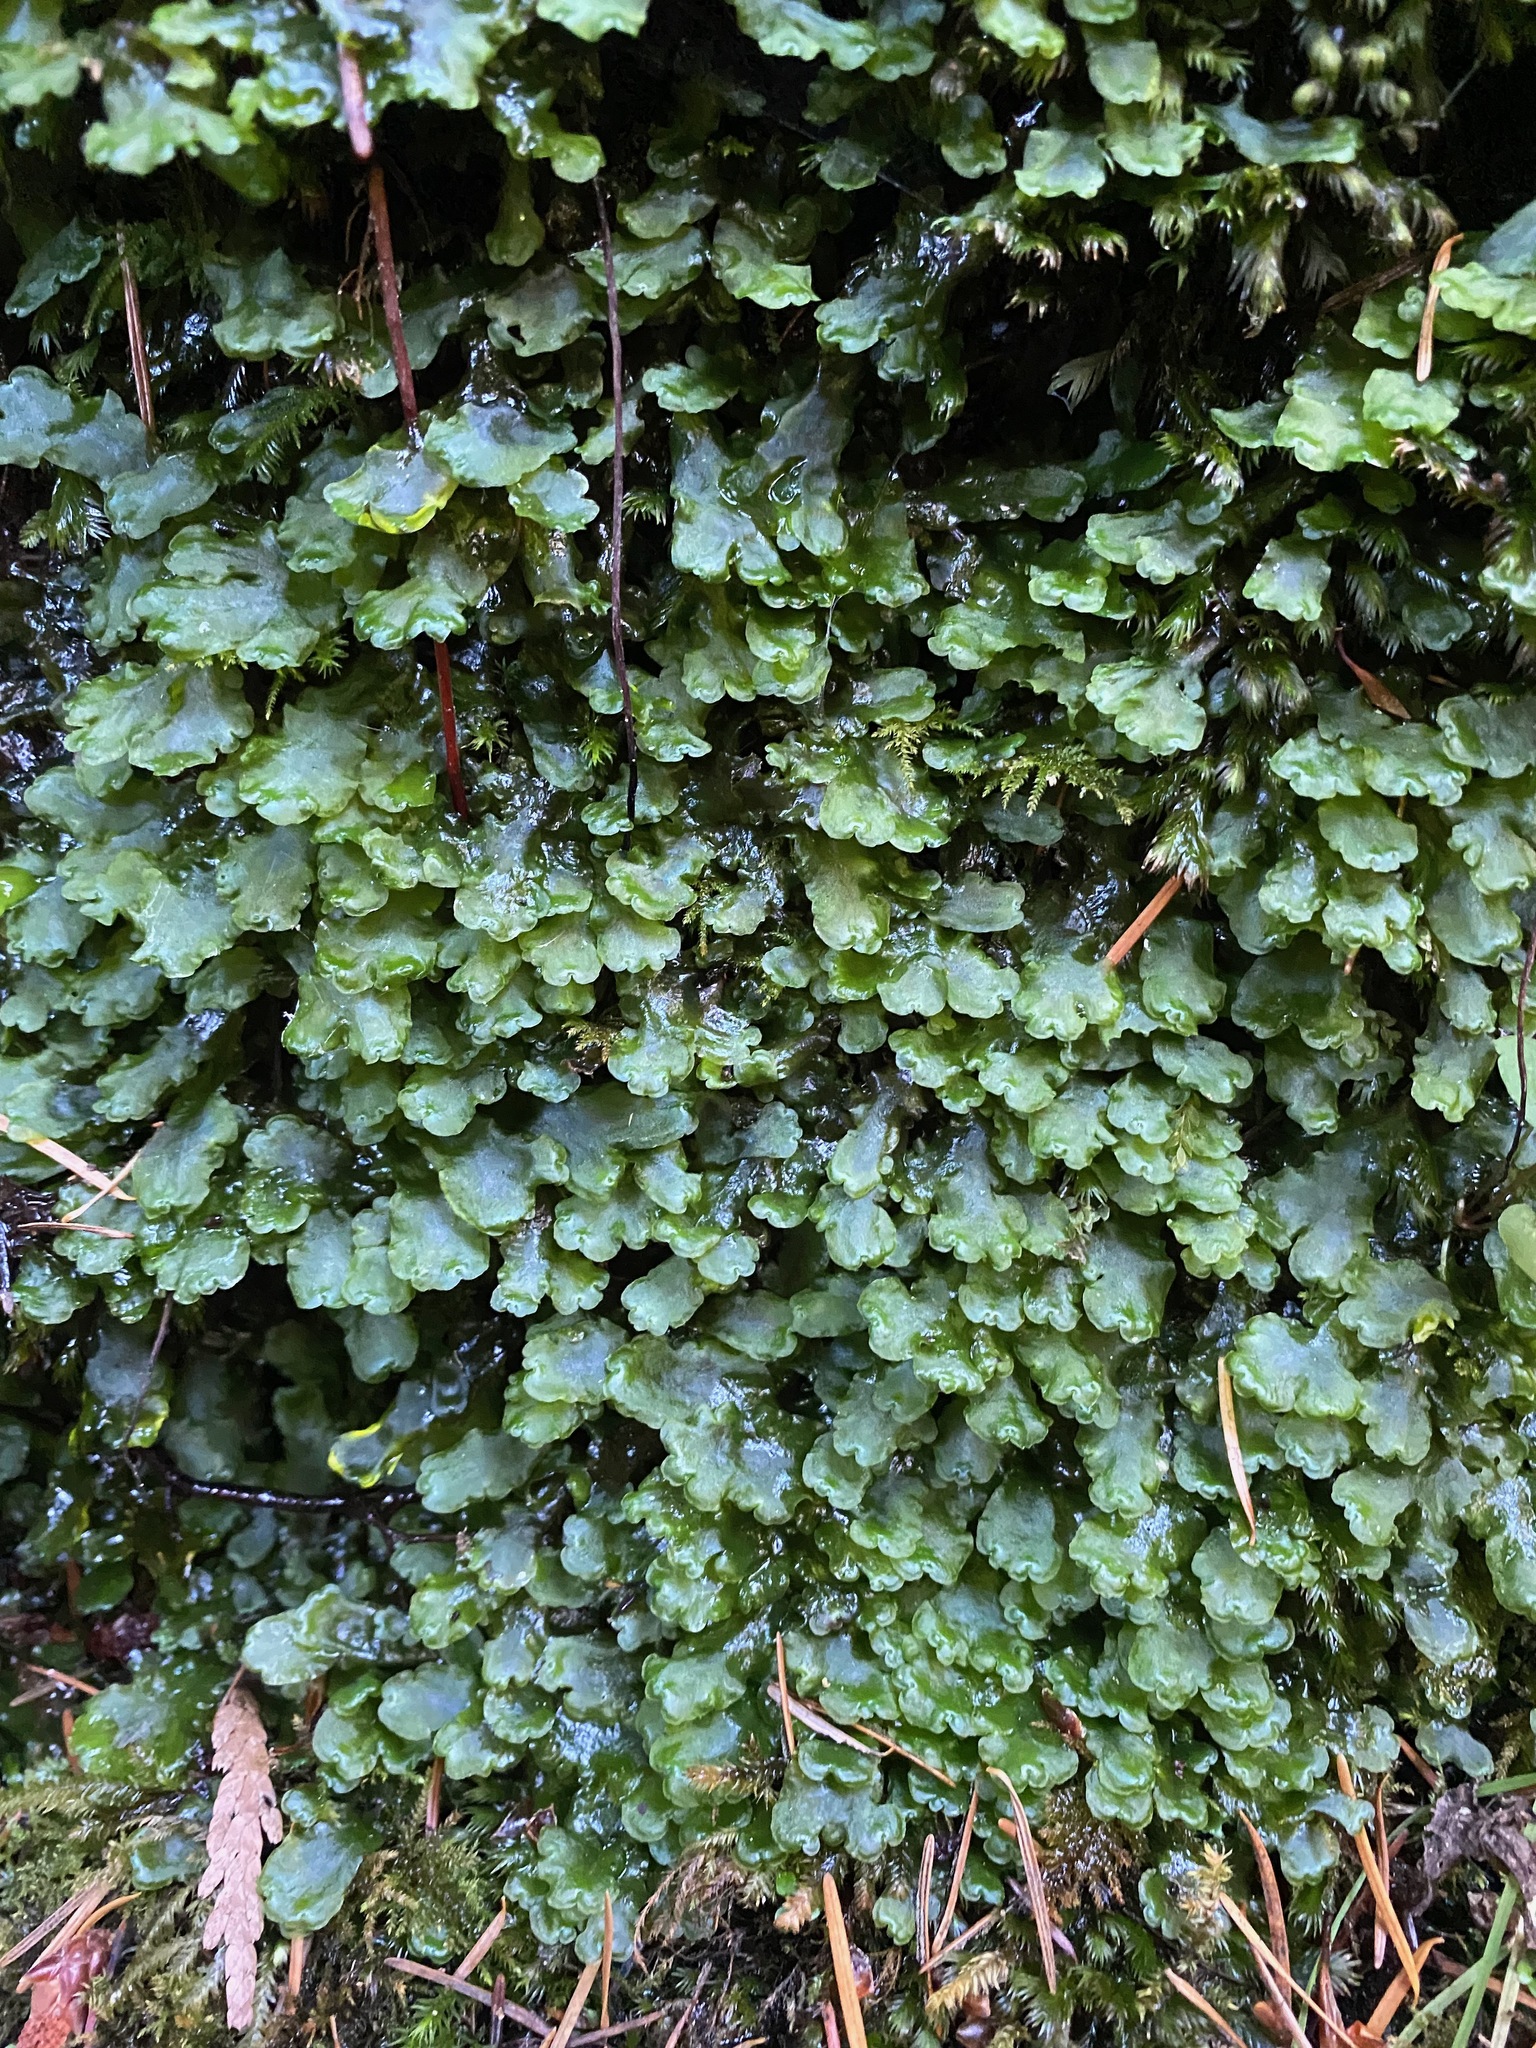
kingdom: Plantae
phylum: Marchantiophyta
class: Jungermanniopsida
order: Pelliales
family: Pelliaceae
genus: Pellia
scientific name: Pellia neesiana
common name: Nees  pellia
